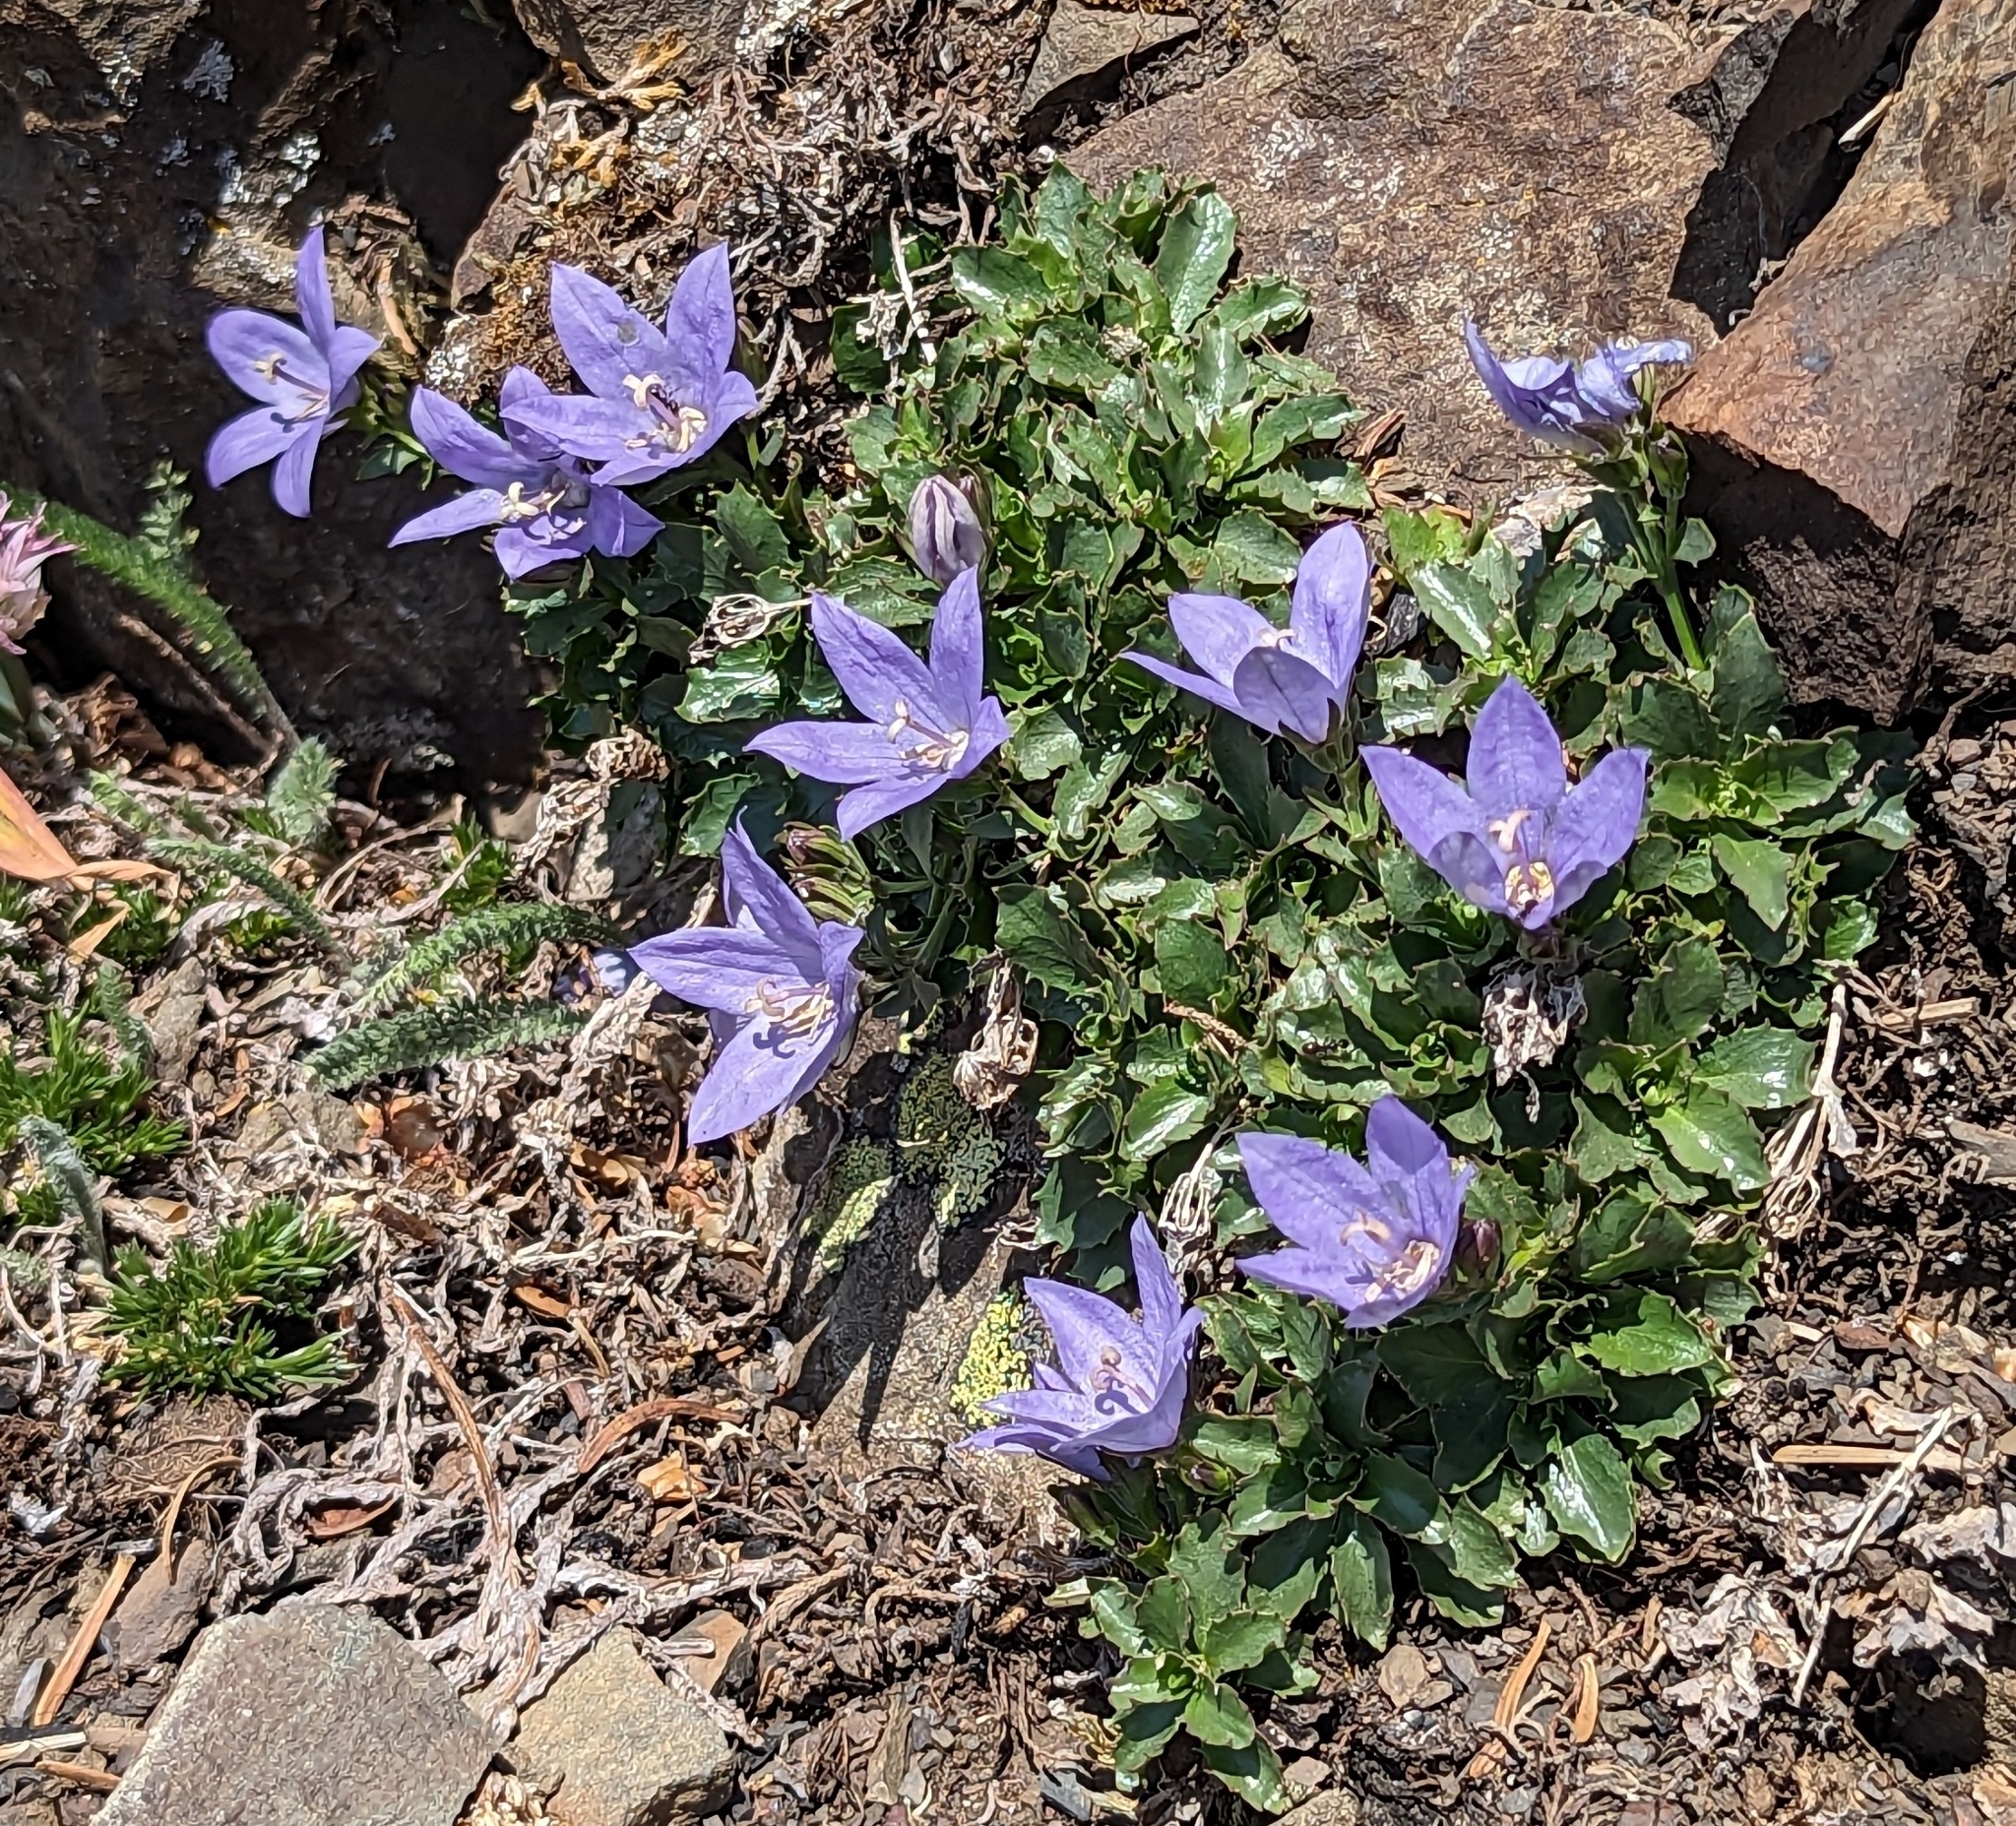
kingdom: Plantae
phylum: Tracheophyta
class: Magnoliopsida
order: Asterales
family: Campanulaceae
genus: Campanula
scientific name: Campanula piperi
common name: Olympic bellflower
